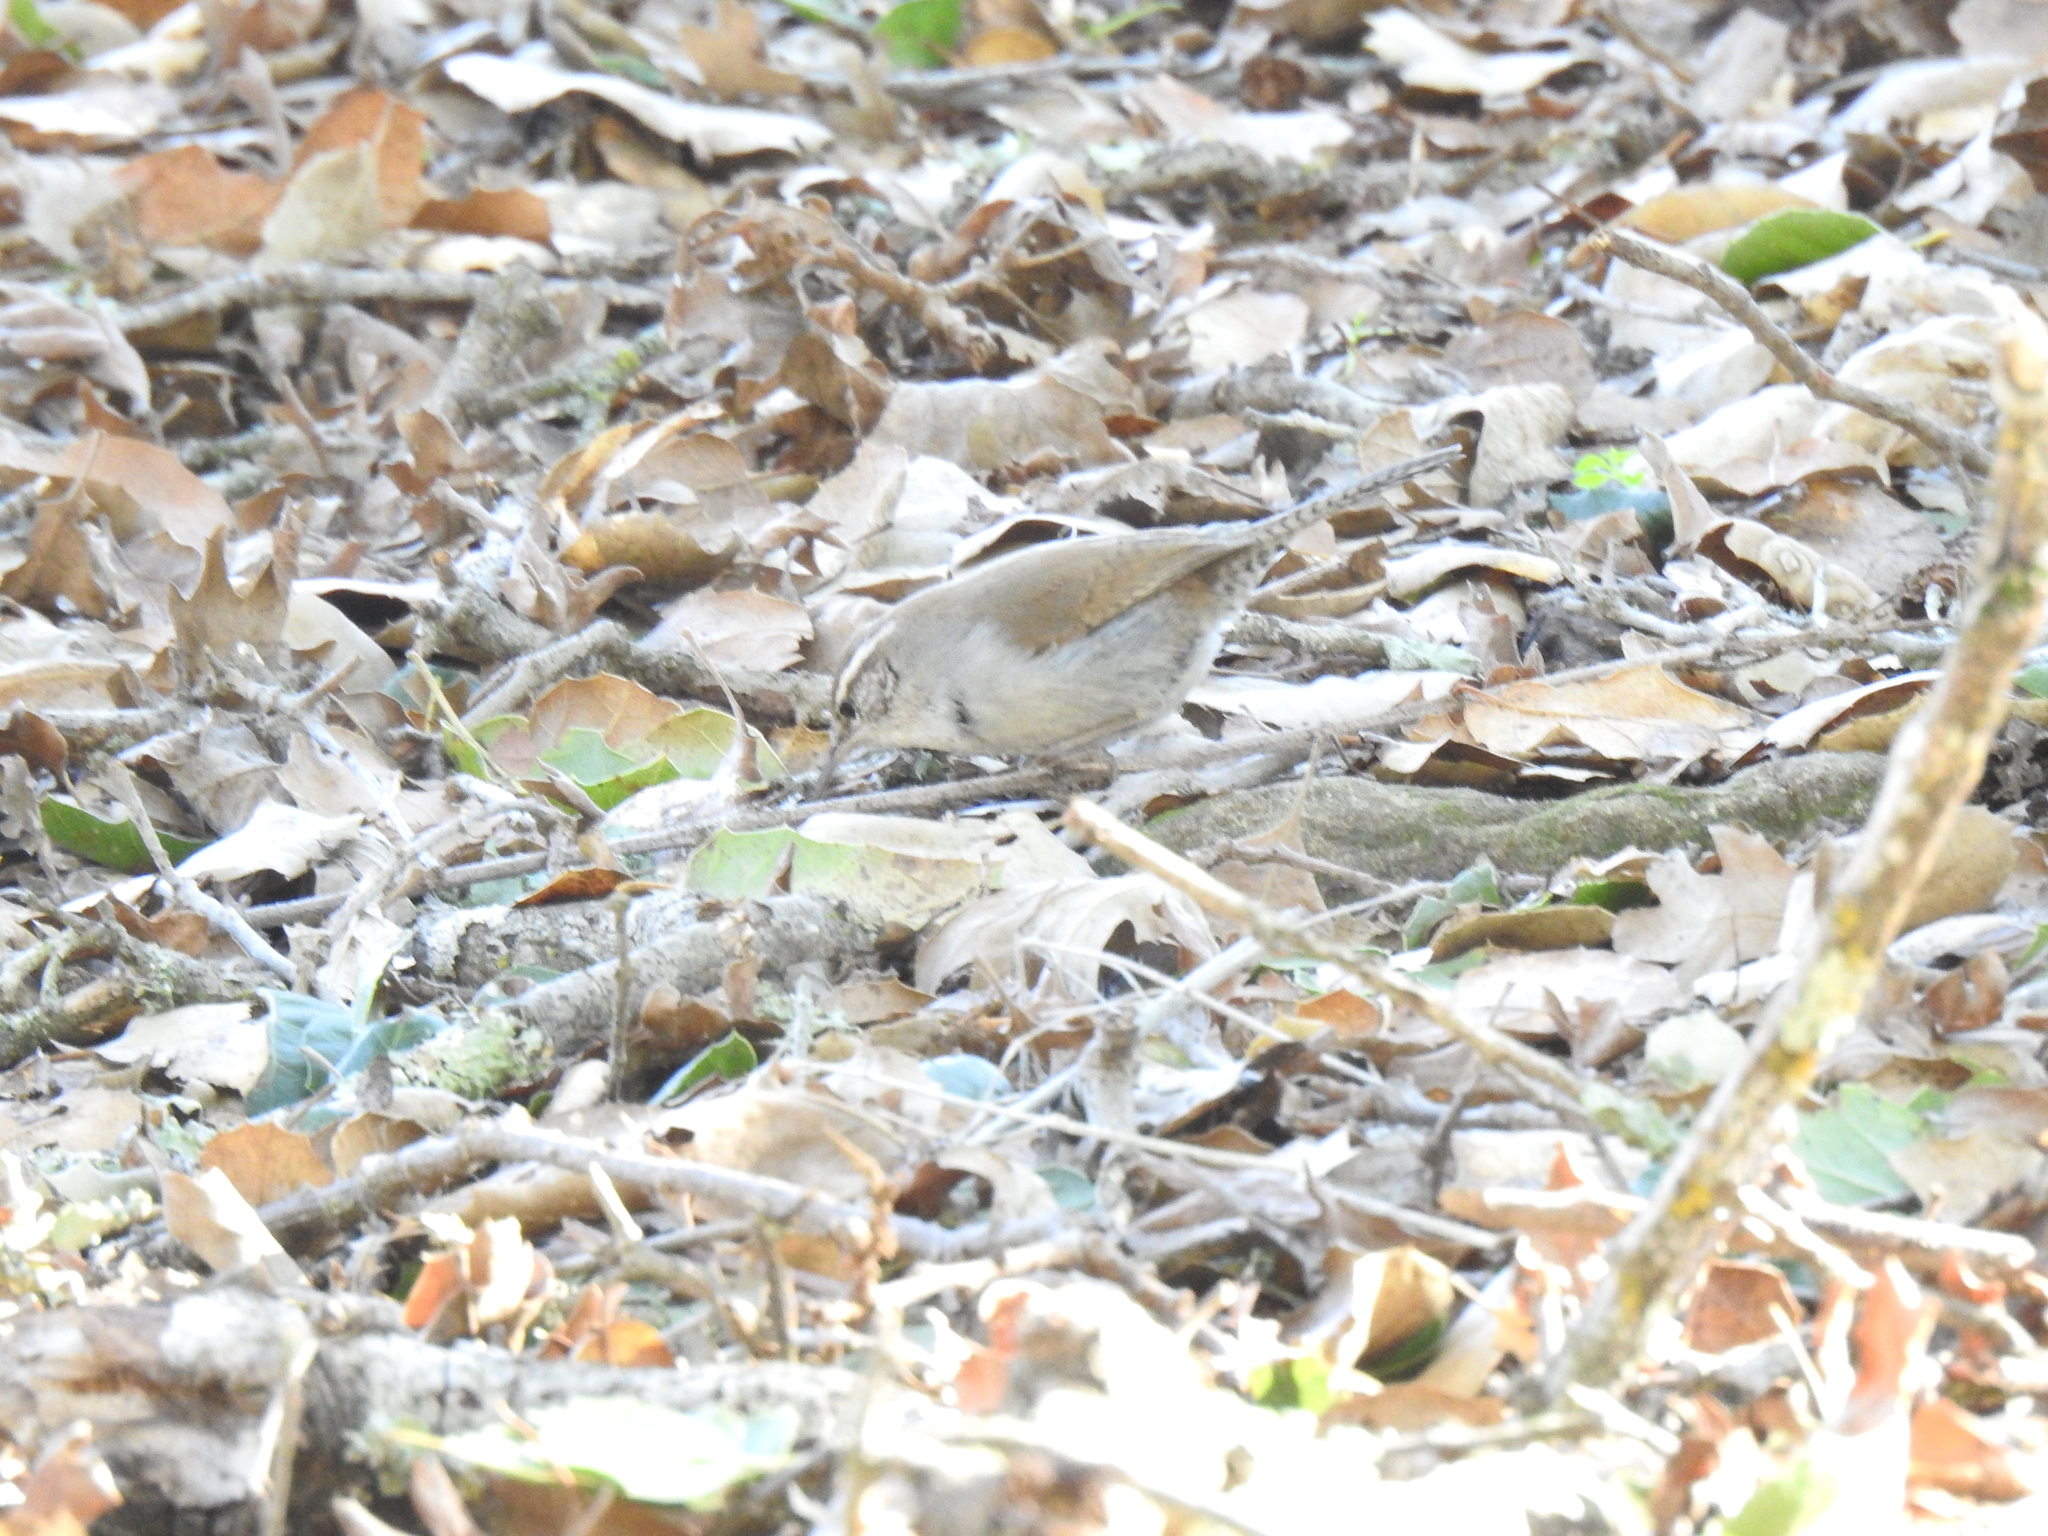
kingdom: Animalia
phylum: Chordata
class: Aves
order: Passeriformes
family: Troglodytidae
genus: Thryomanes
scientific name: Thryomanes bewickii
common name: Bewick's wren
